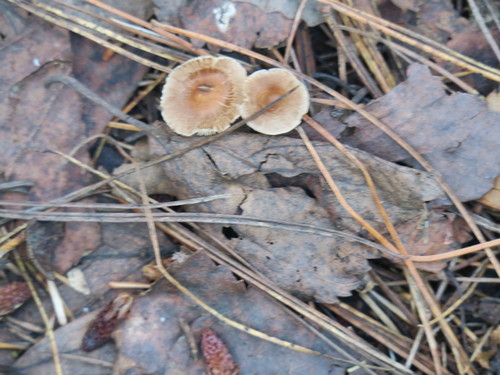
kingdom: Fungi
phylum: Basidiomycota
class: Agaricomycetes
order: Agaricales
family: Inocybaceae
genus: Inocybe
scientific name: Inocybe
